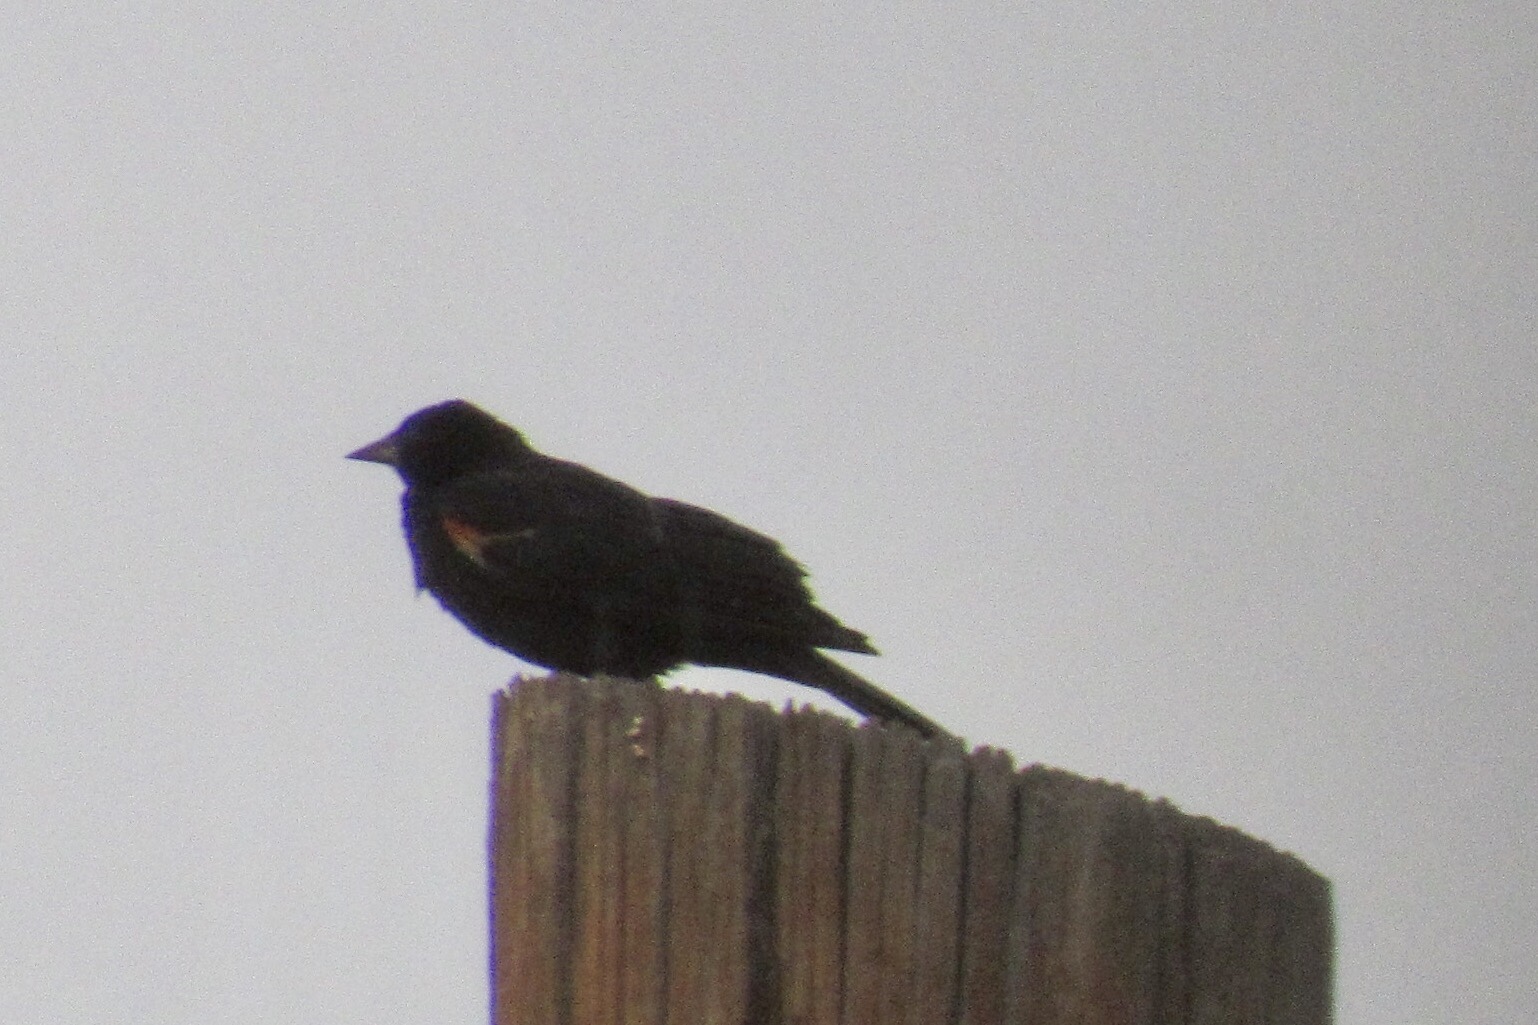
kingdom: Animalia
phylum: Chordata
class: Aves
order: Passeriformes
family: Icteridae
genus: Agelaius
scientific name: Agelaius phoeniceus
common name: Red-winged blackbird
